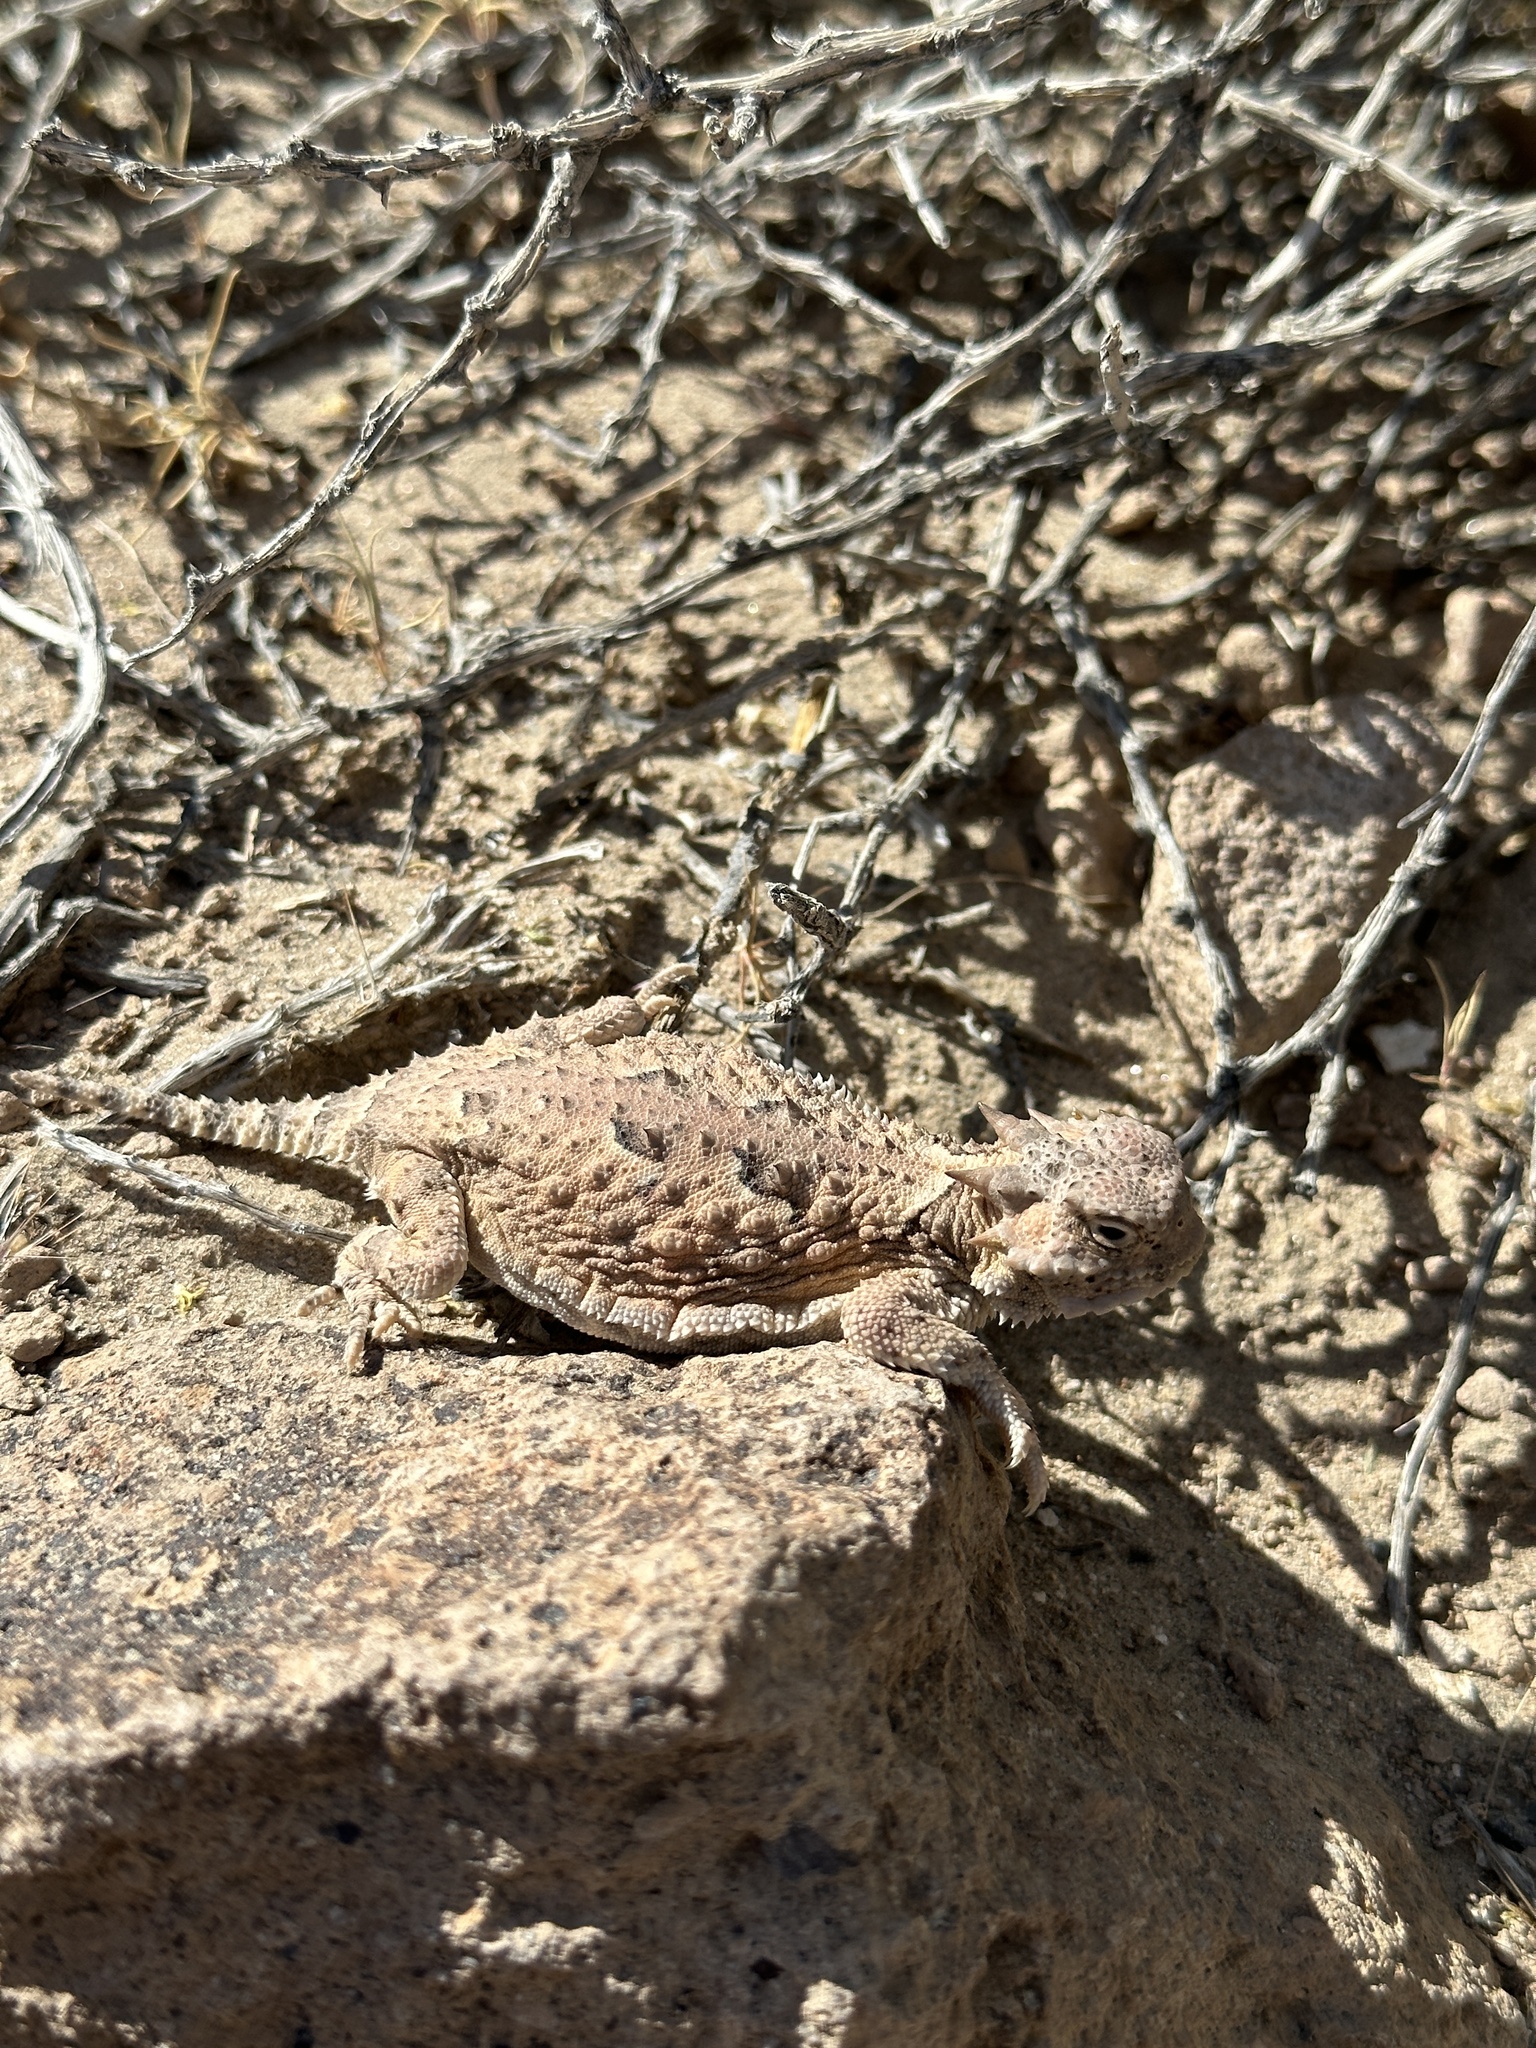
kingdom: Animalia
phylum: Chordata
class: Squamata
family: Phrynosomatidae
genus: Phrynosoma
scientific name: Phrynosoma platyrhinos
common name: Desert horned lizard
